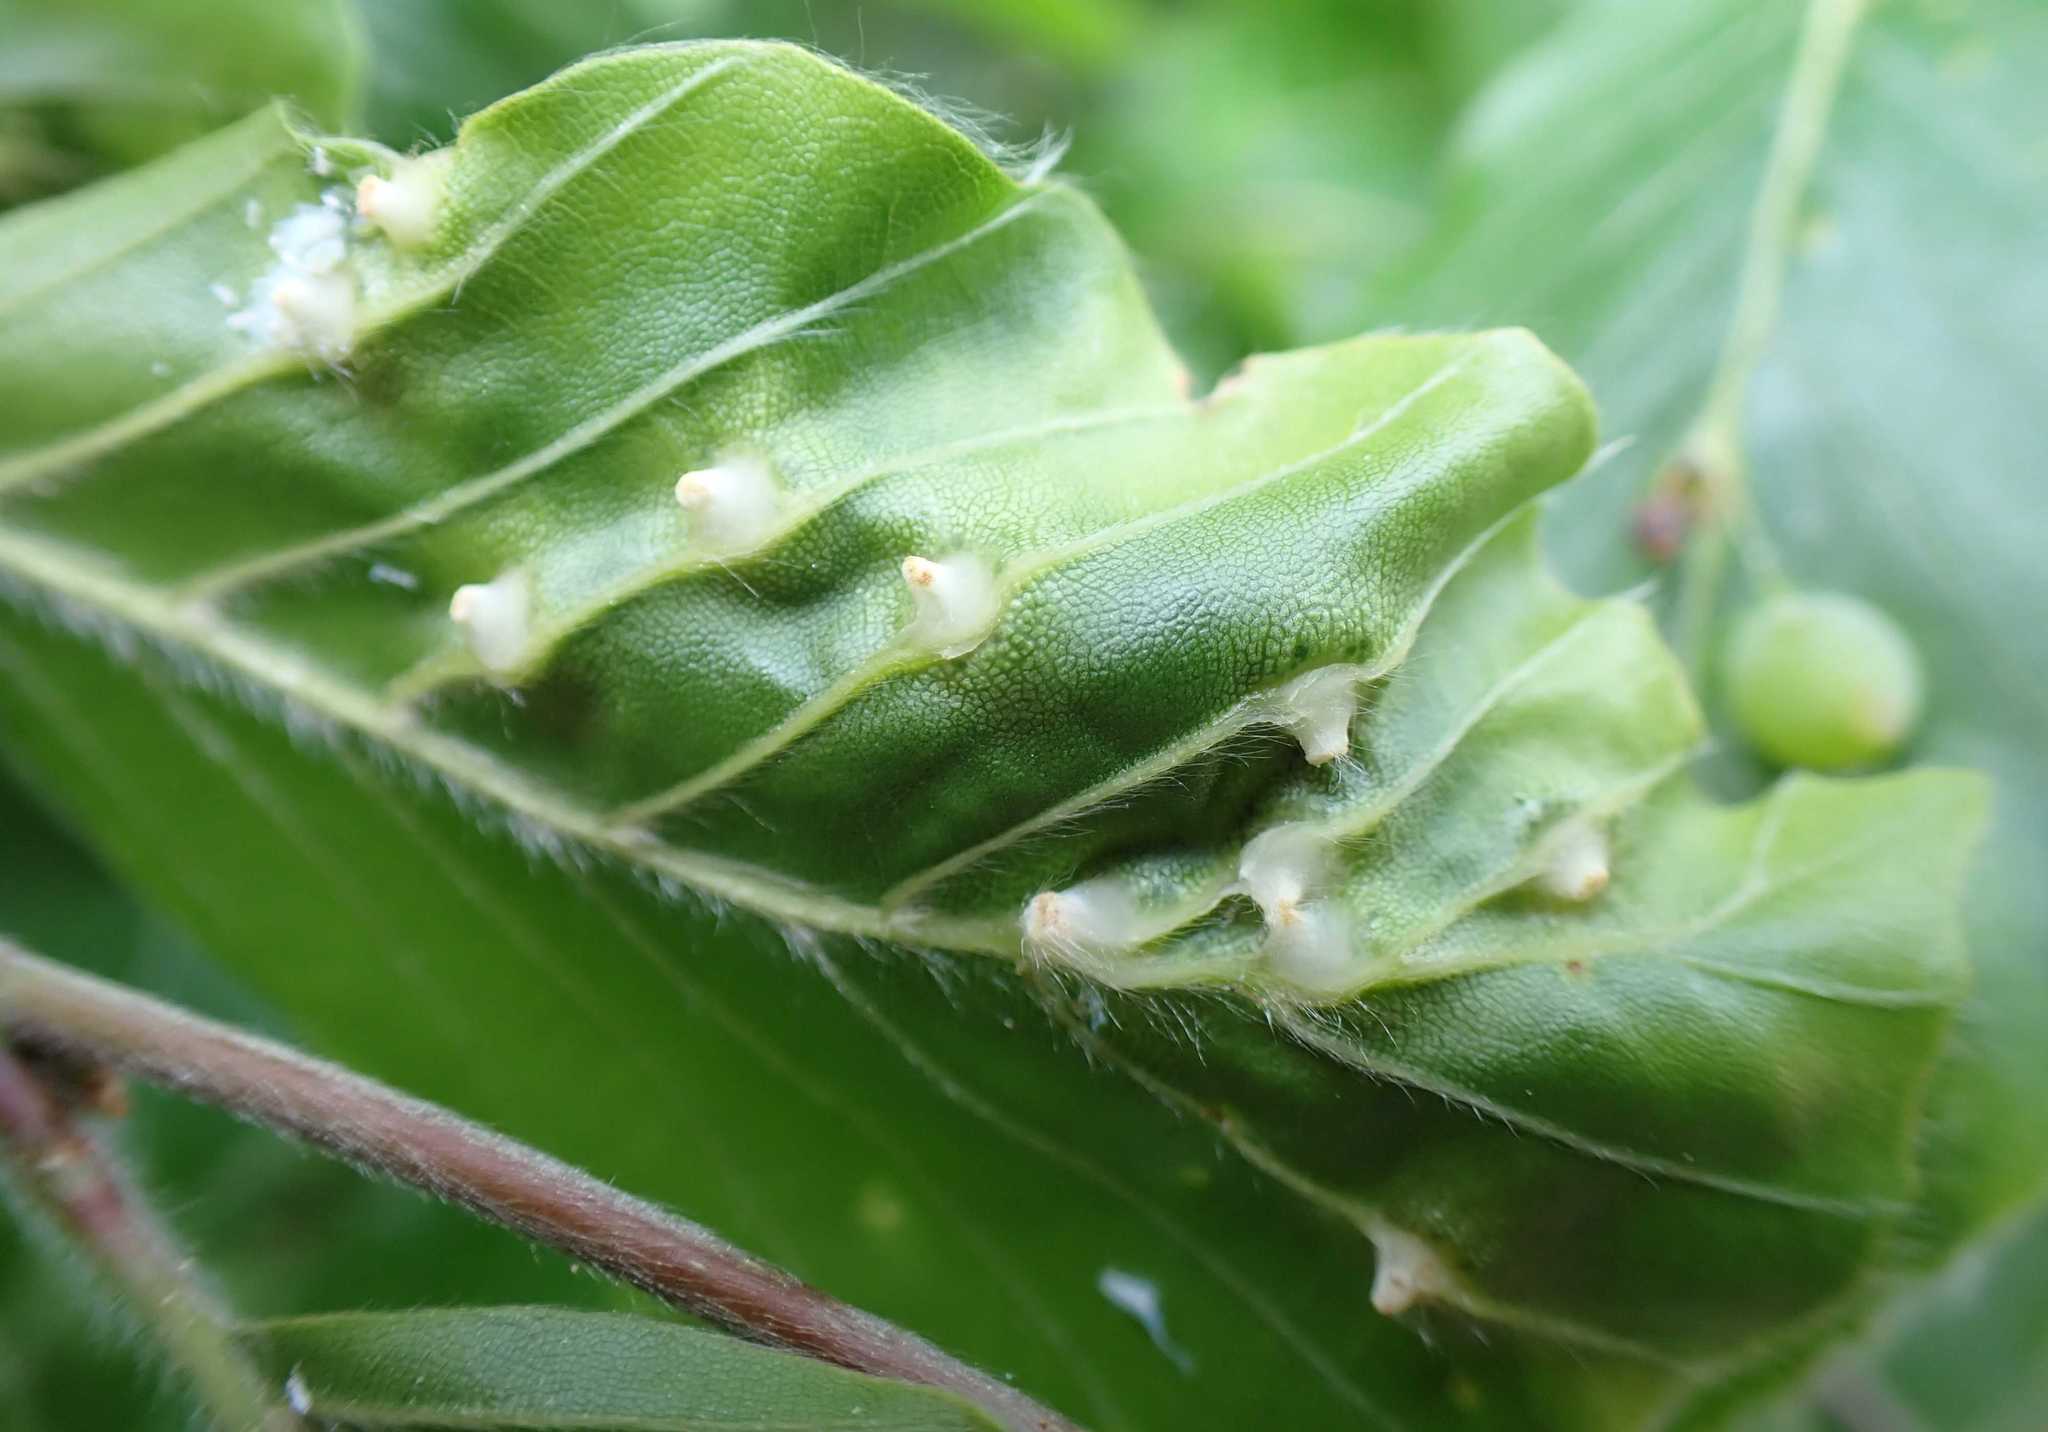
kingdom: Animalia
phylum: Arthropoda
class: Insecta
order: Diptera
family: Cecidomyiidae
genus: Mikiola
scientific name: Mikiola fagi
